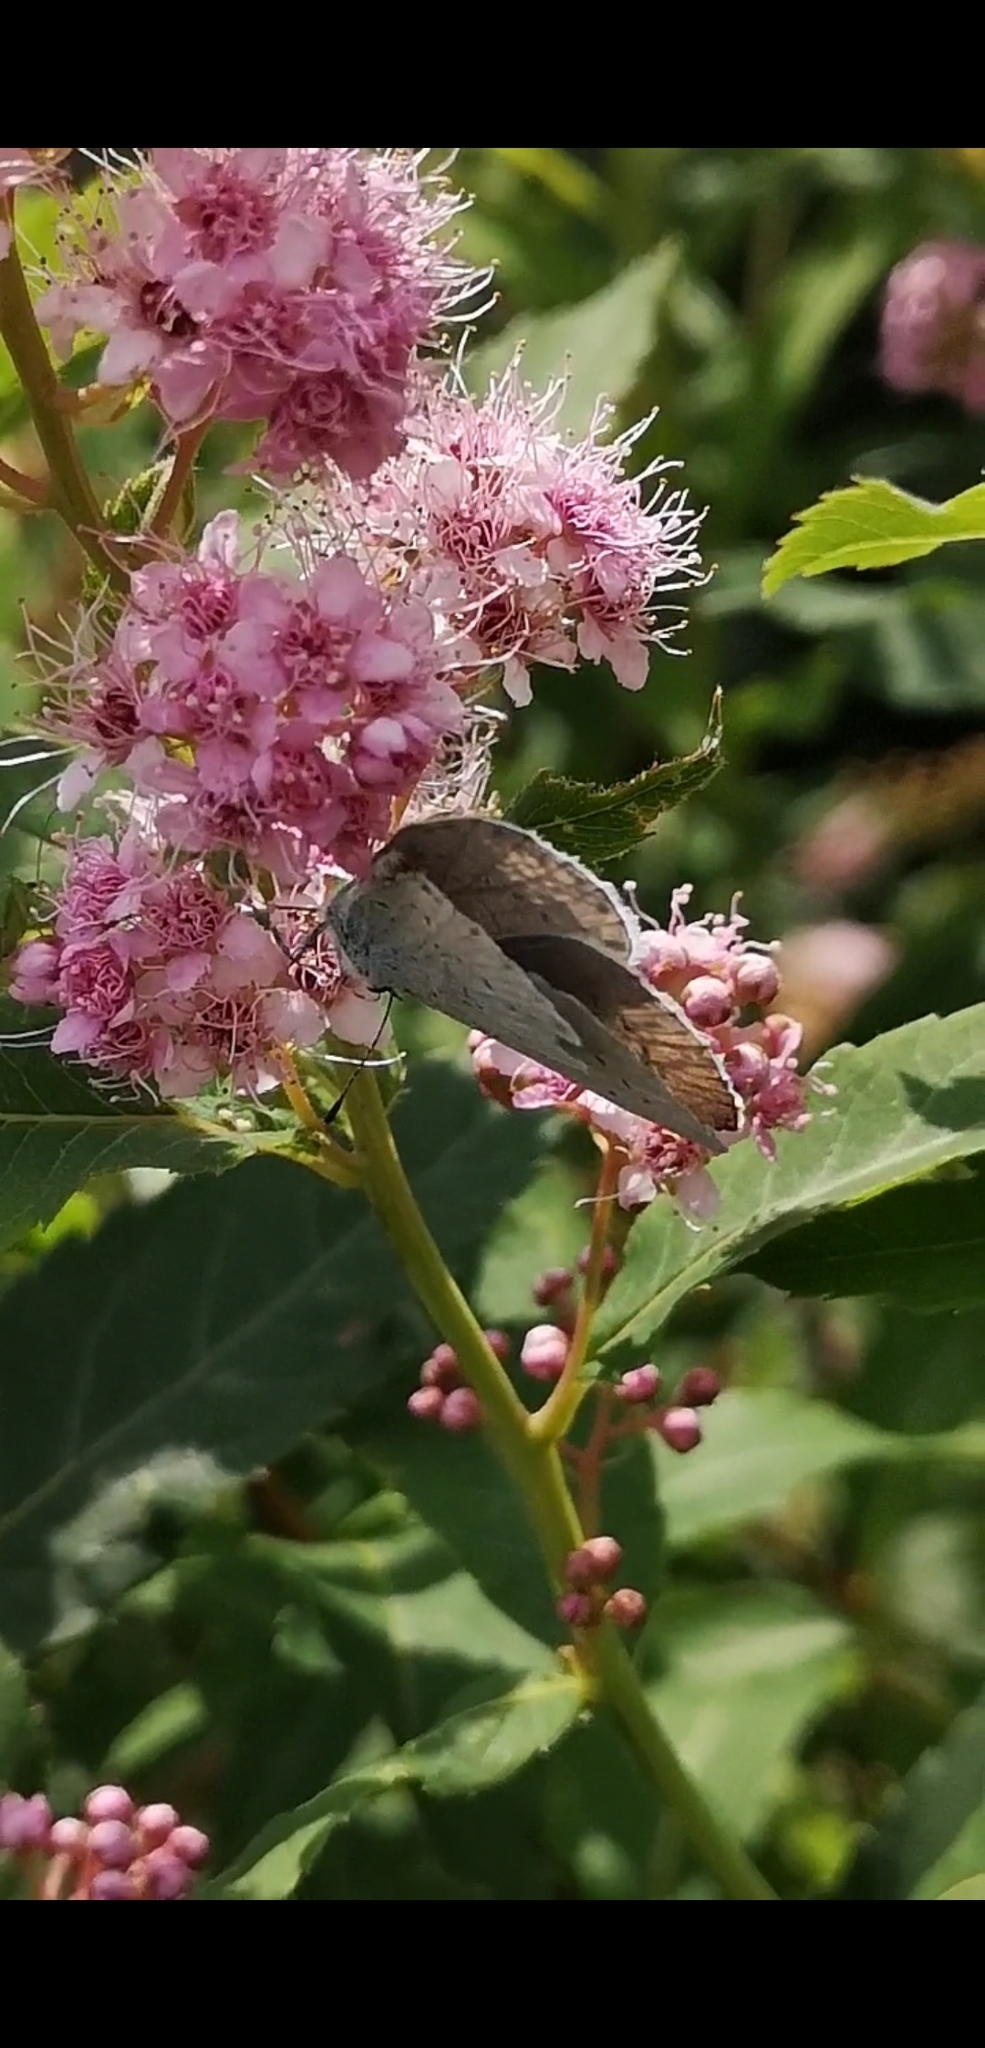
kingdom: Animalia
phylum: Arthropoda
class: Insecta
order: Lepidoptera
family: Lycaenidae
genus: Celastrina
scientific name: Celastrina argiolus
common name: Holly blue
